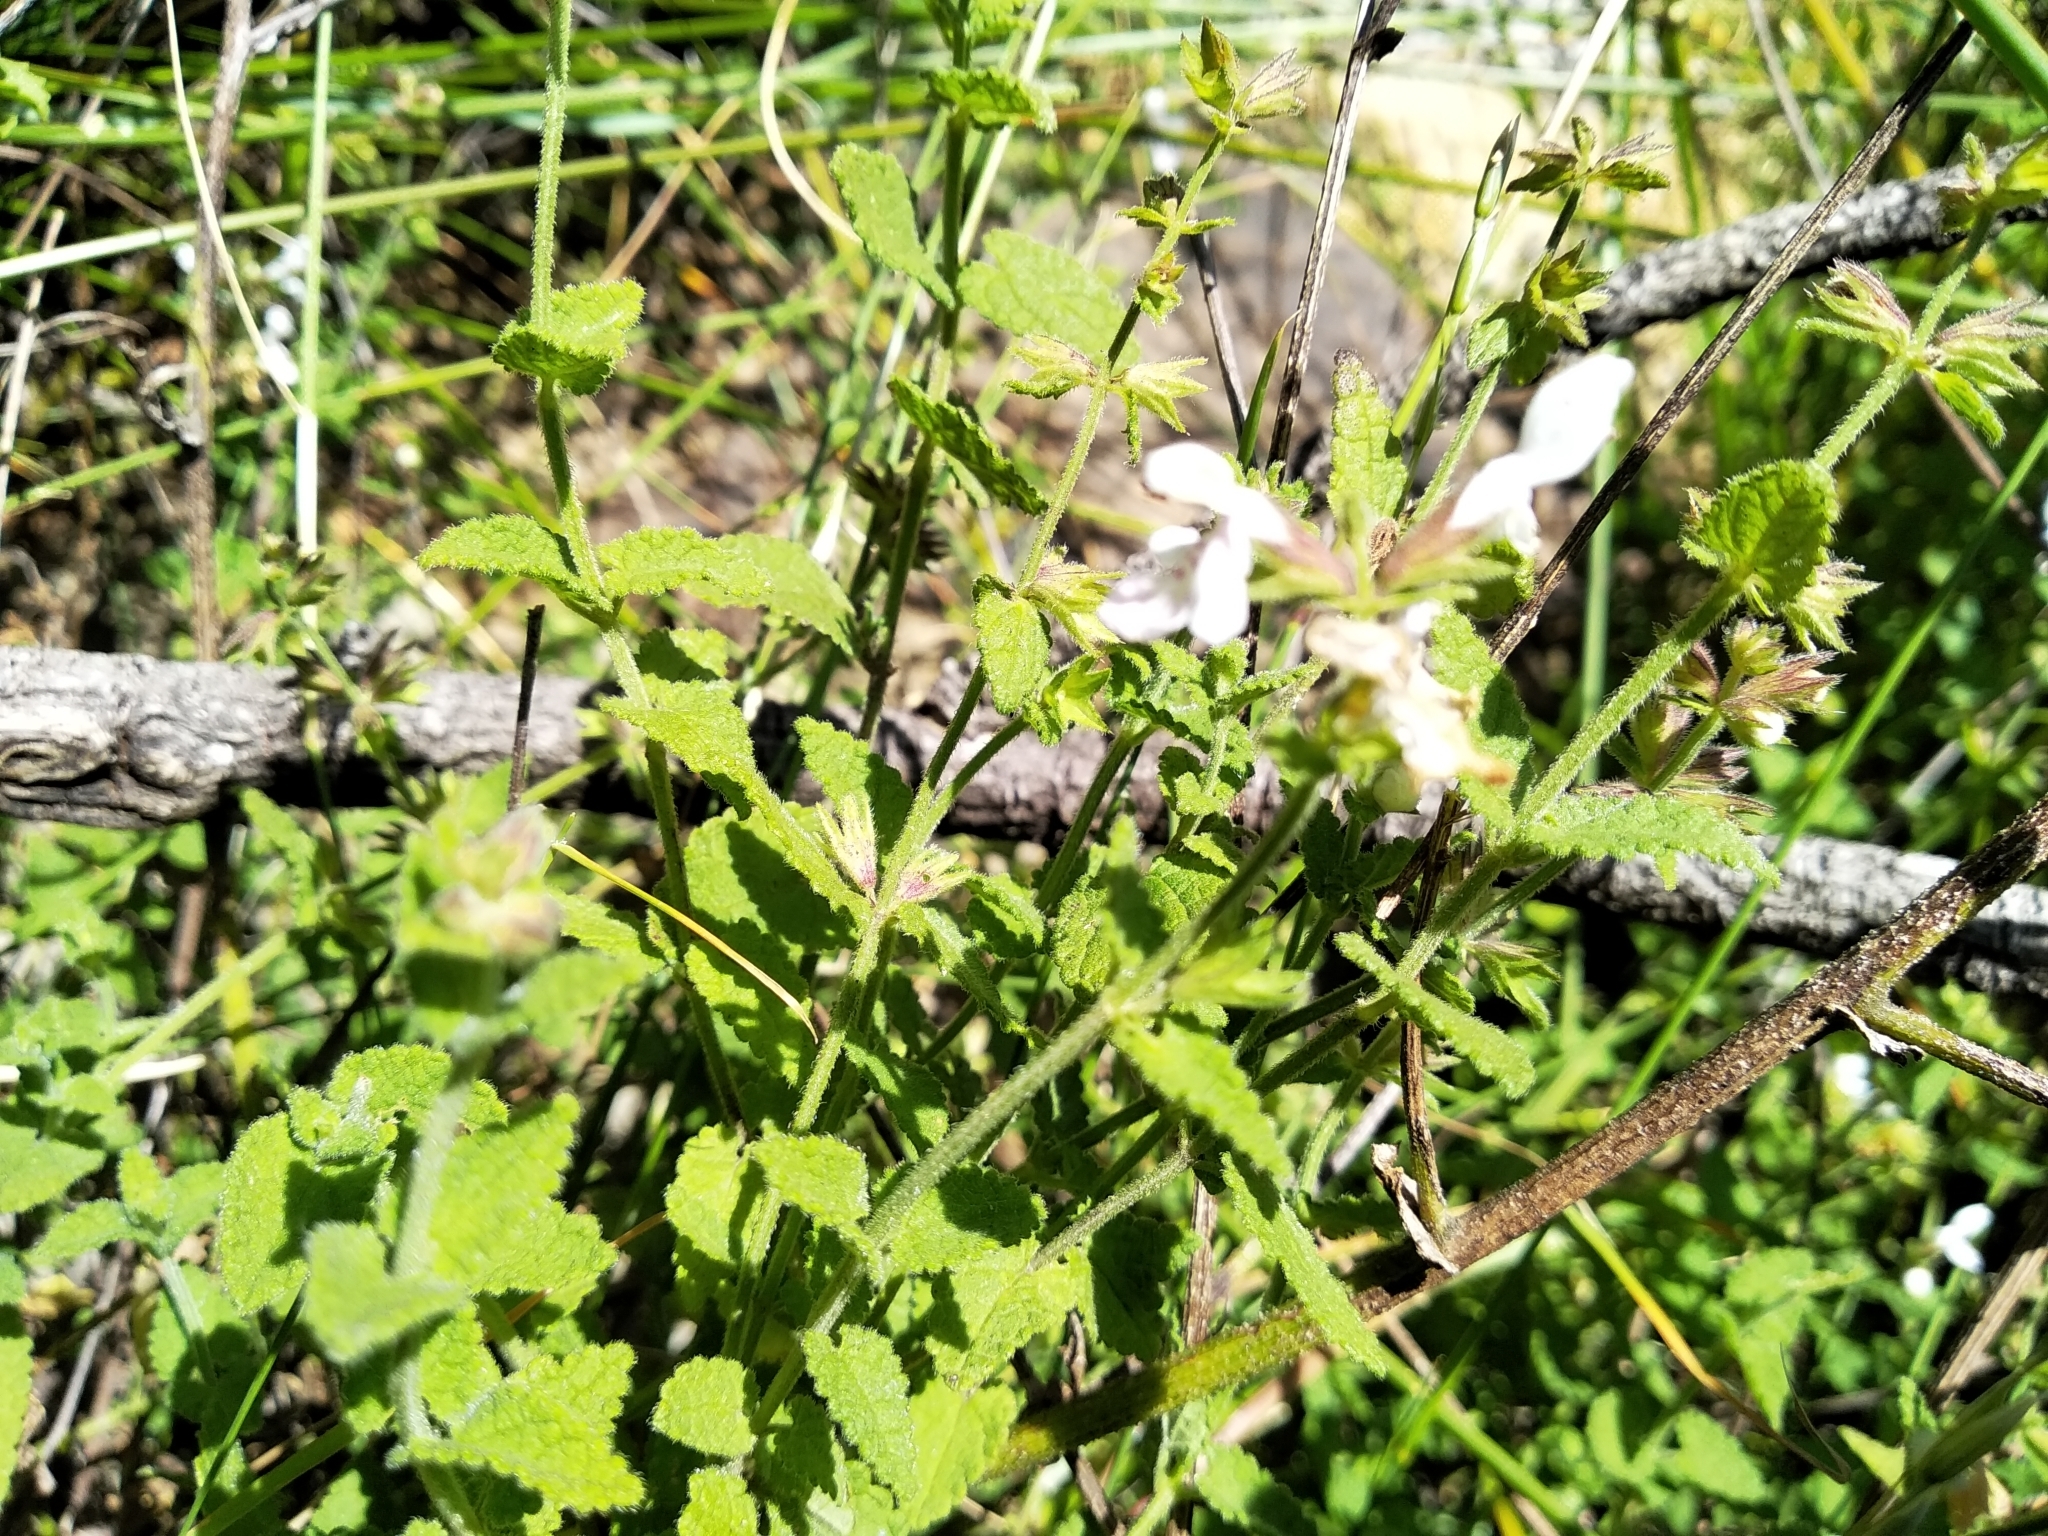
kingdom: Plantae
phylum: Tracheophyta
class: Magnoliopsida
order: Lamiales
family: Lamiaceae
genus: Stachys
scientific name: Stachys aethiopica
